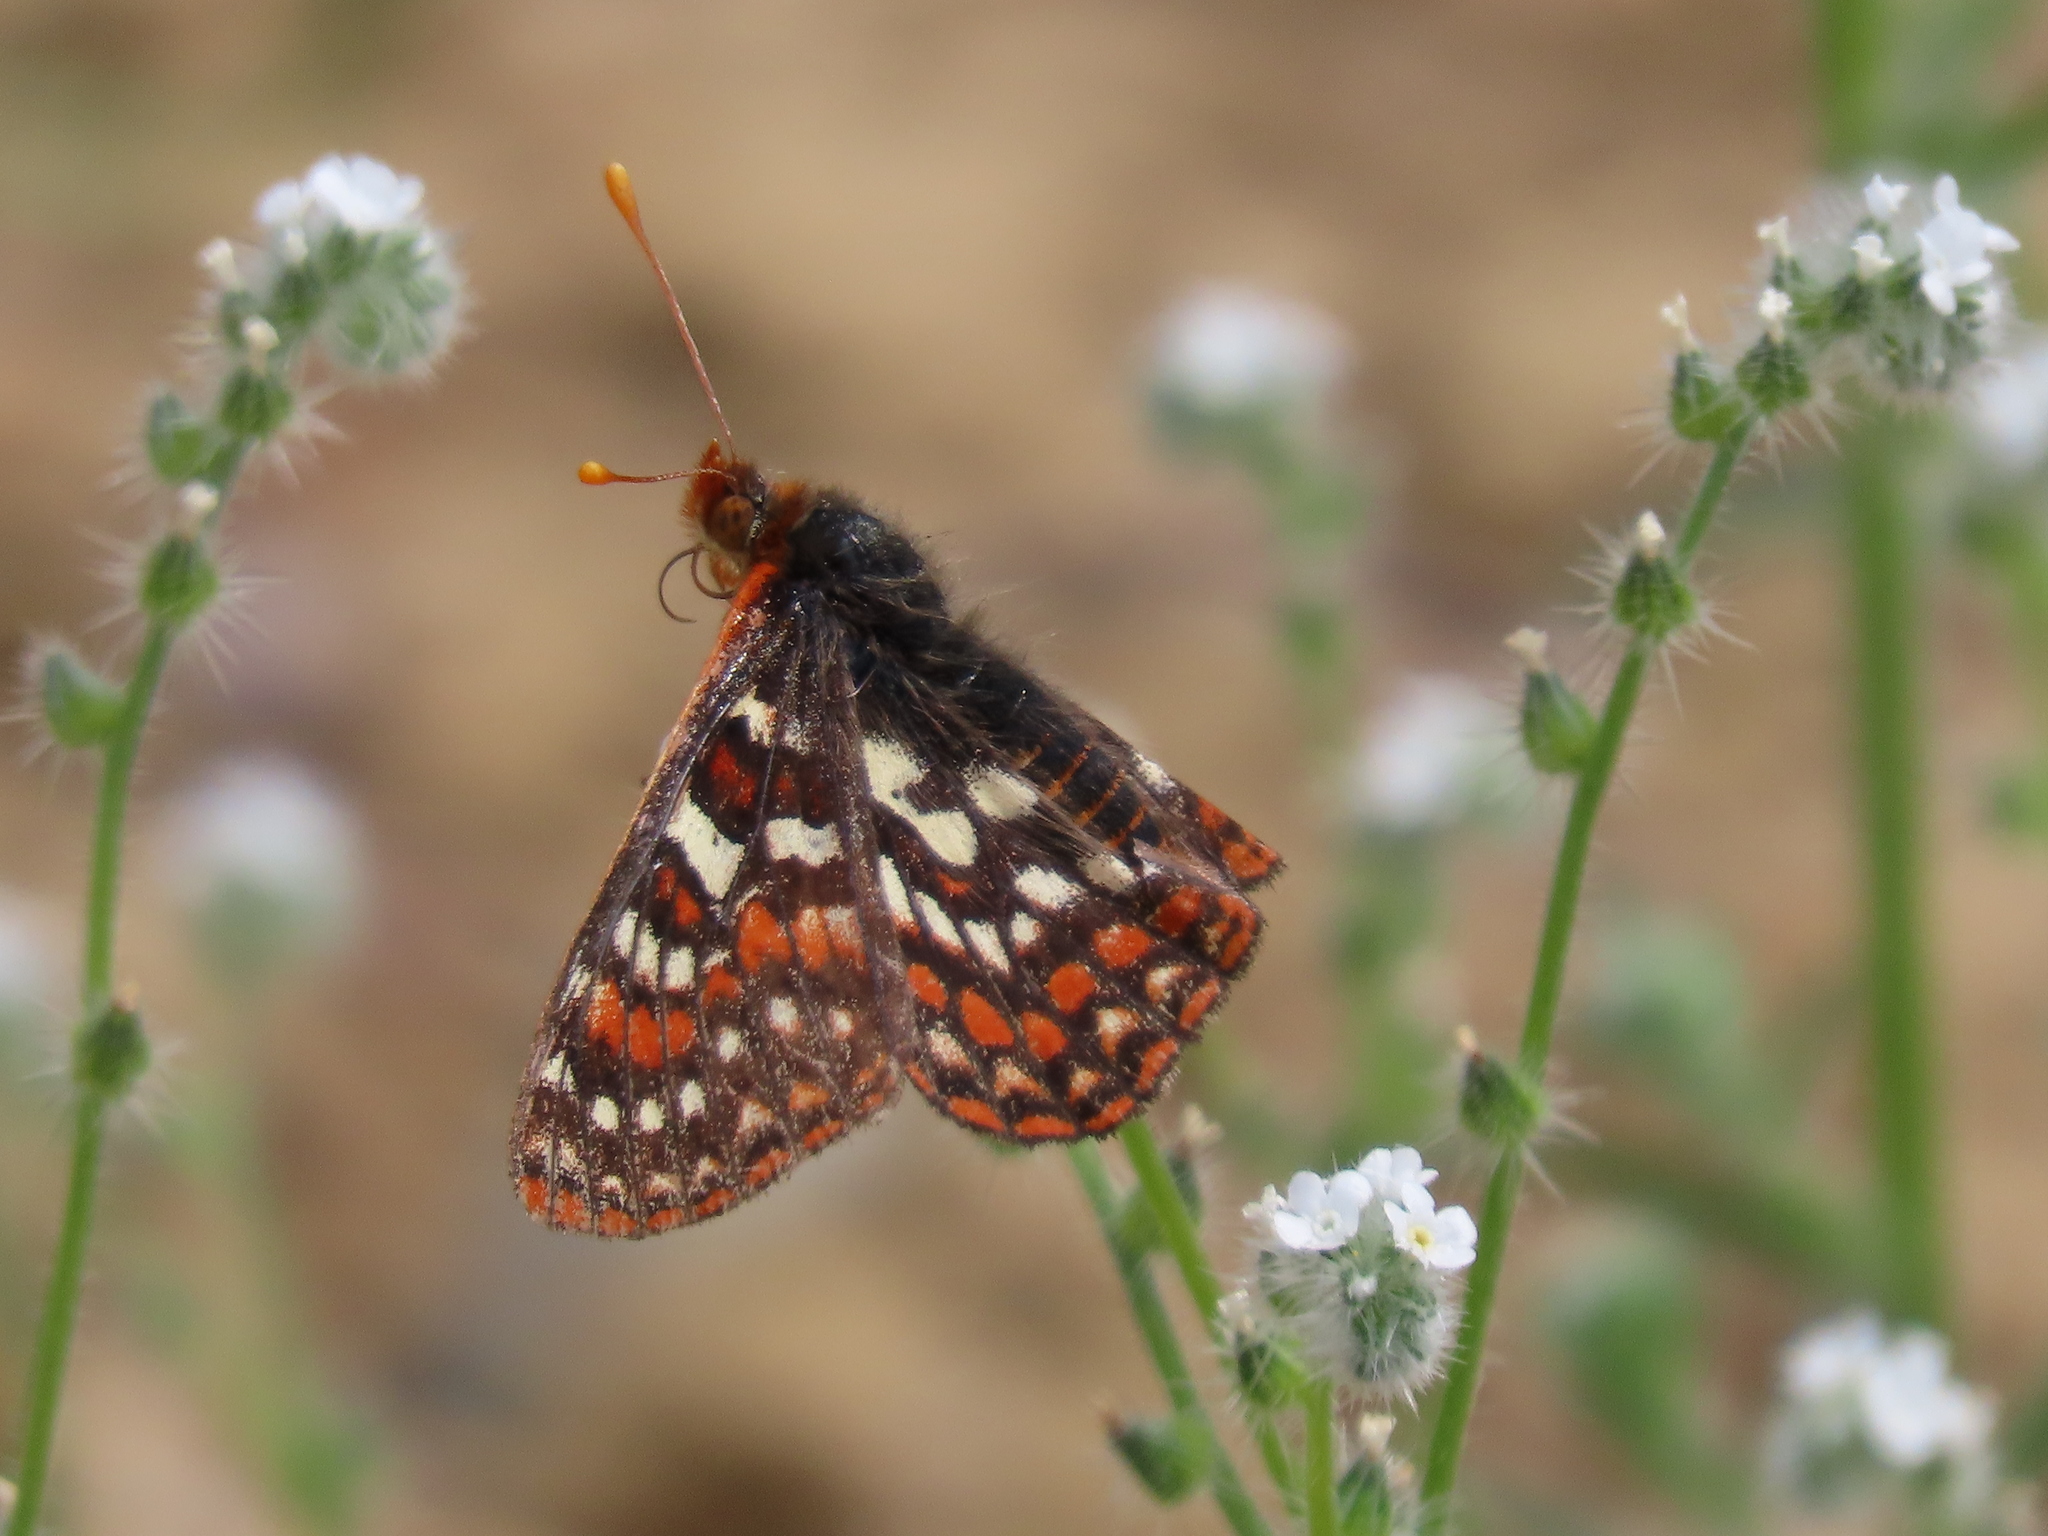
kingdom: Animalia
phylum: Arthropoda
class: Insecta
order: Lepidoptera
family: Nymphalidae
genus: Occidryas
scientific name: Occidryas editha
